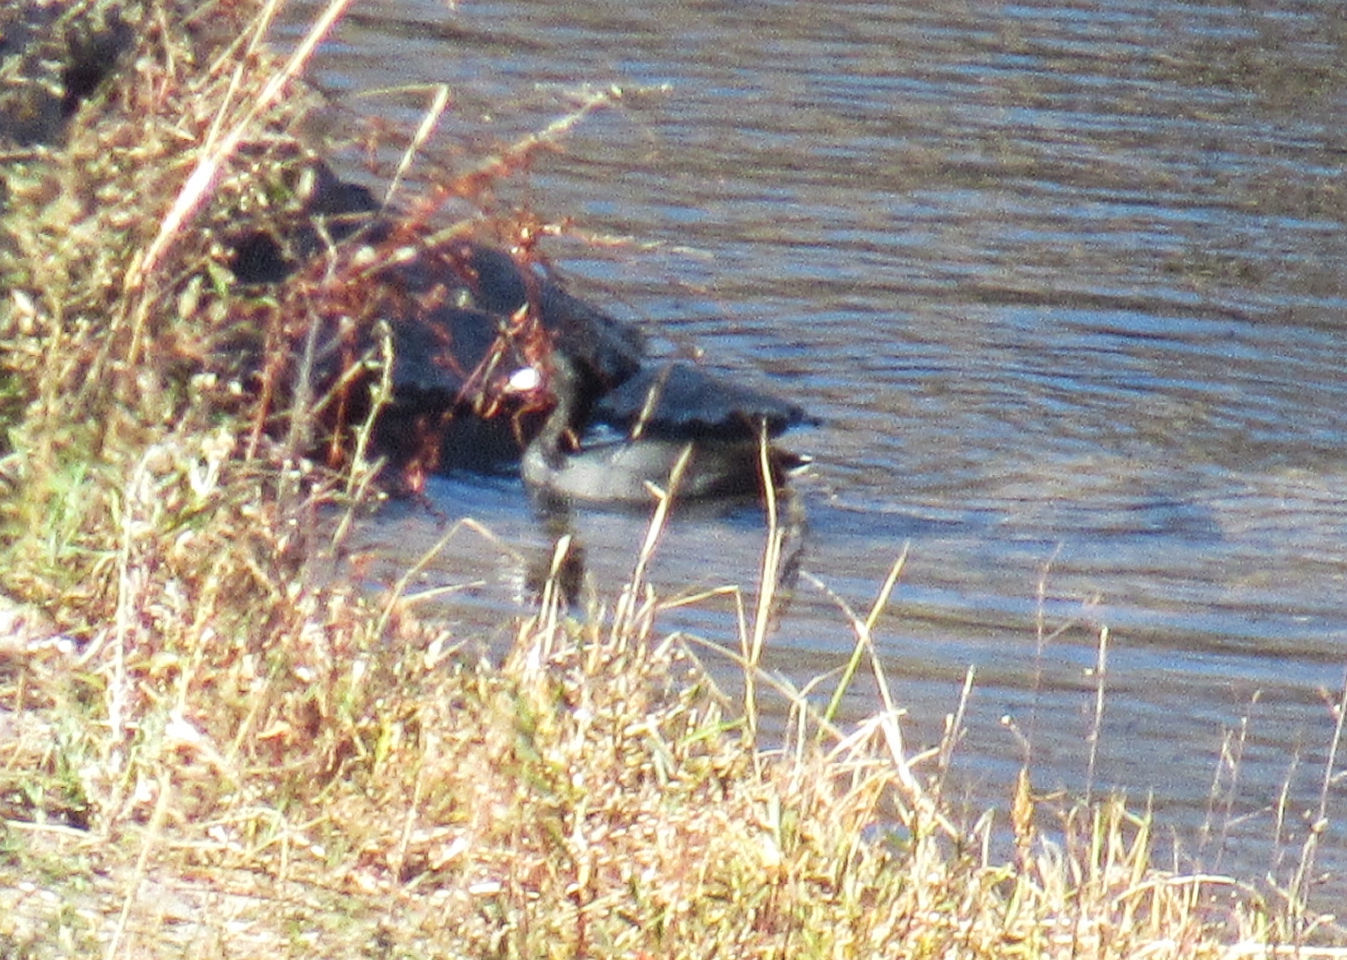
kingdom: Animalia
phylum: Chordata
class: Aves
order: Gruiformes
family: Rallidae
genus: Fulica
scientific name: Fulica americana
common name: American coot
